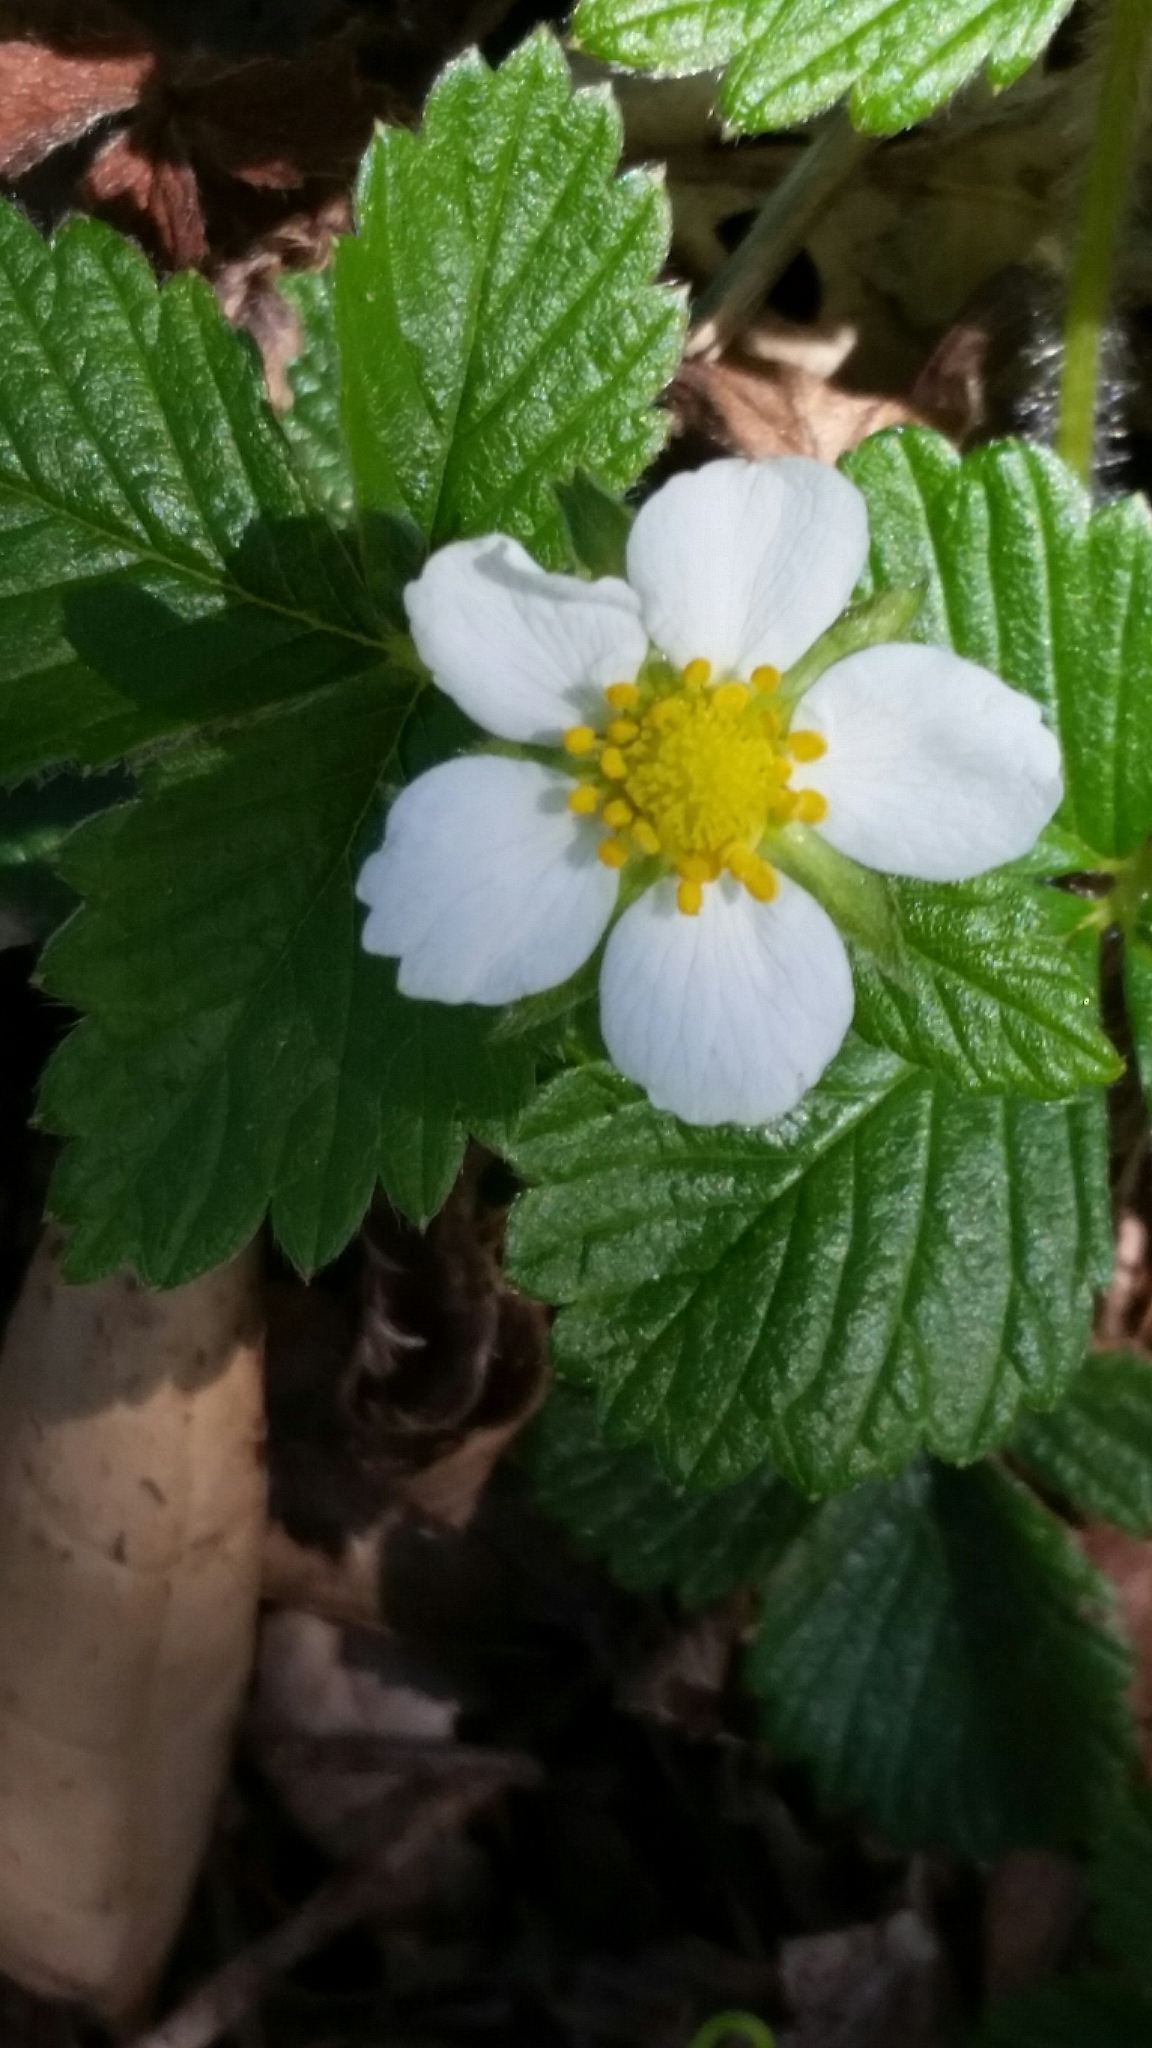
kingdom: Plantae
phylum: Tracheophyta
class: Magnoliopsida
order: Rosales
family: Rosaceae
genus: Fragaria
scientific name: Fragaria vesca
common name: Wild strawberry
